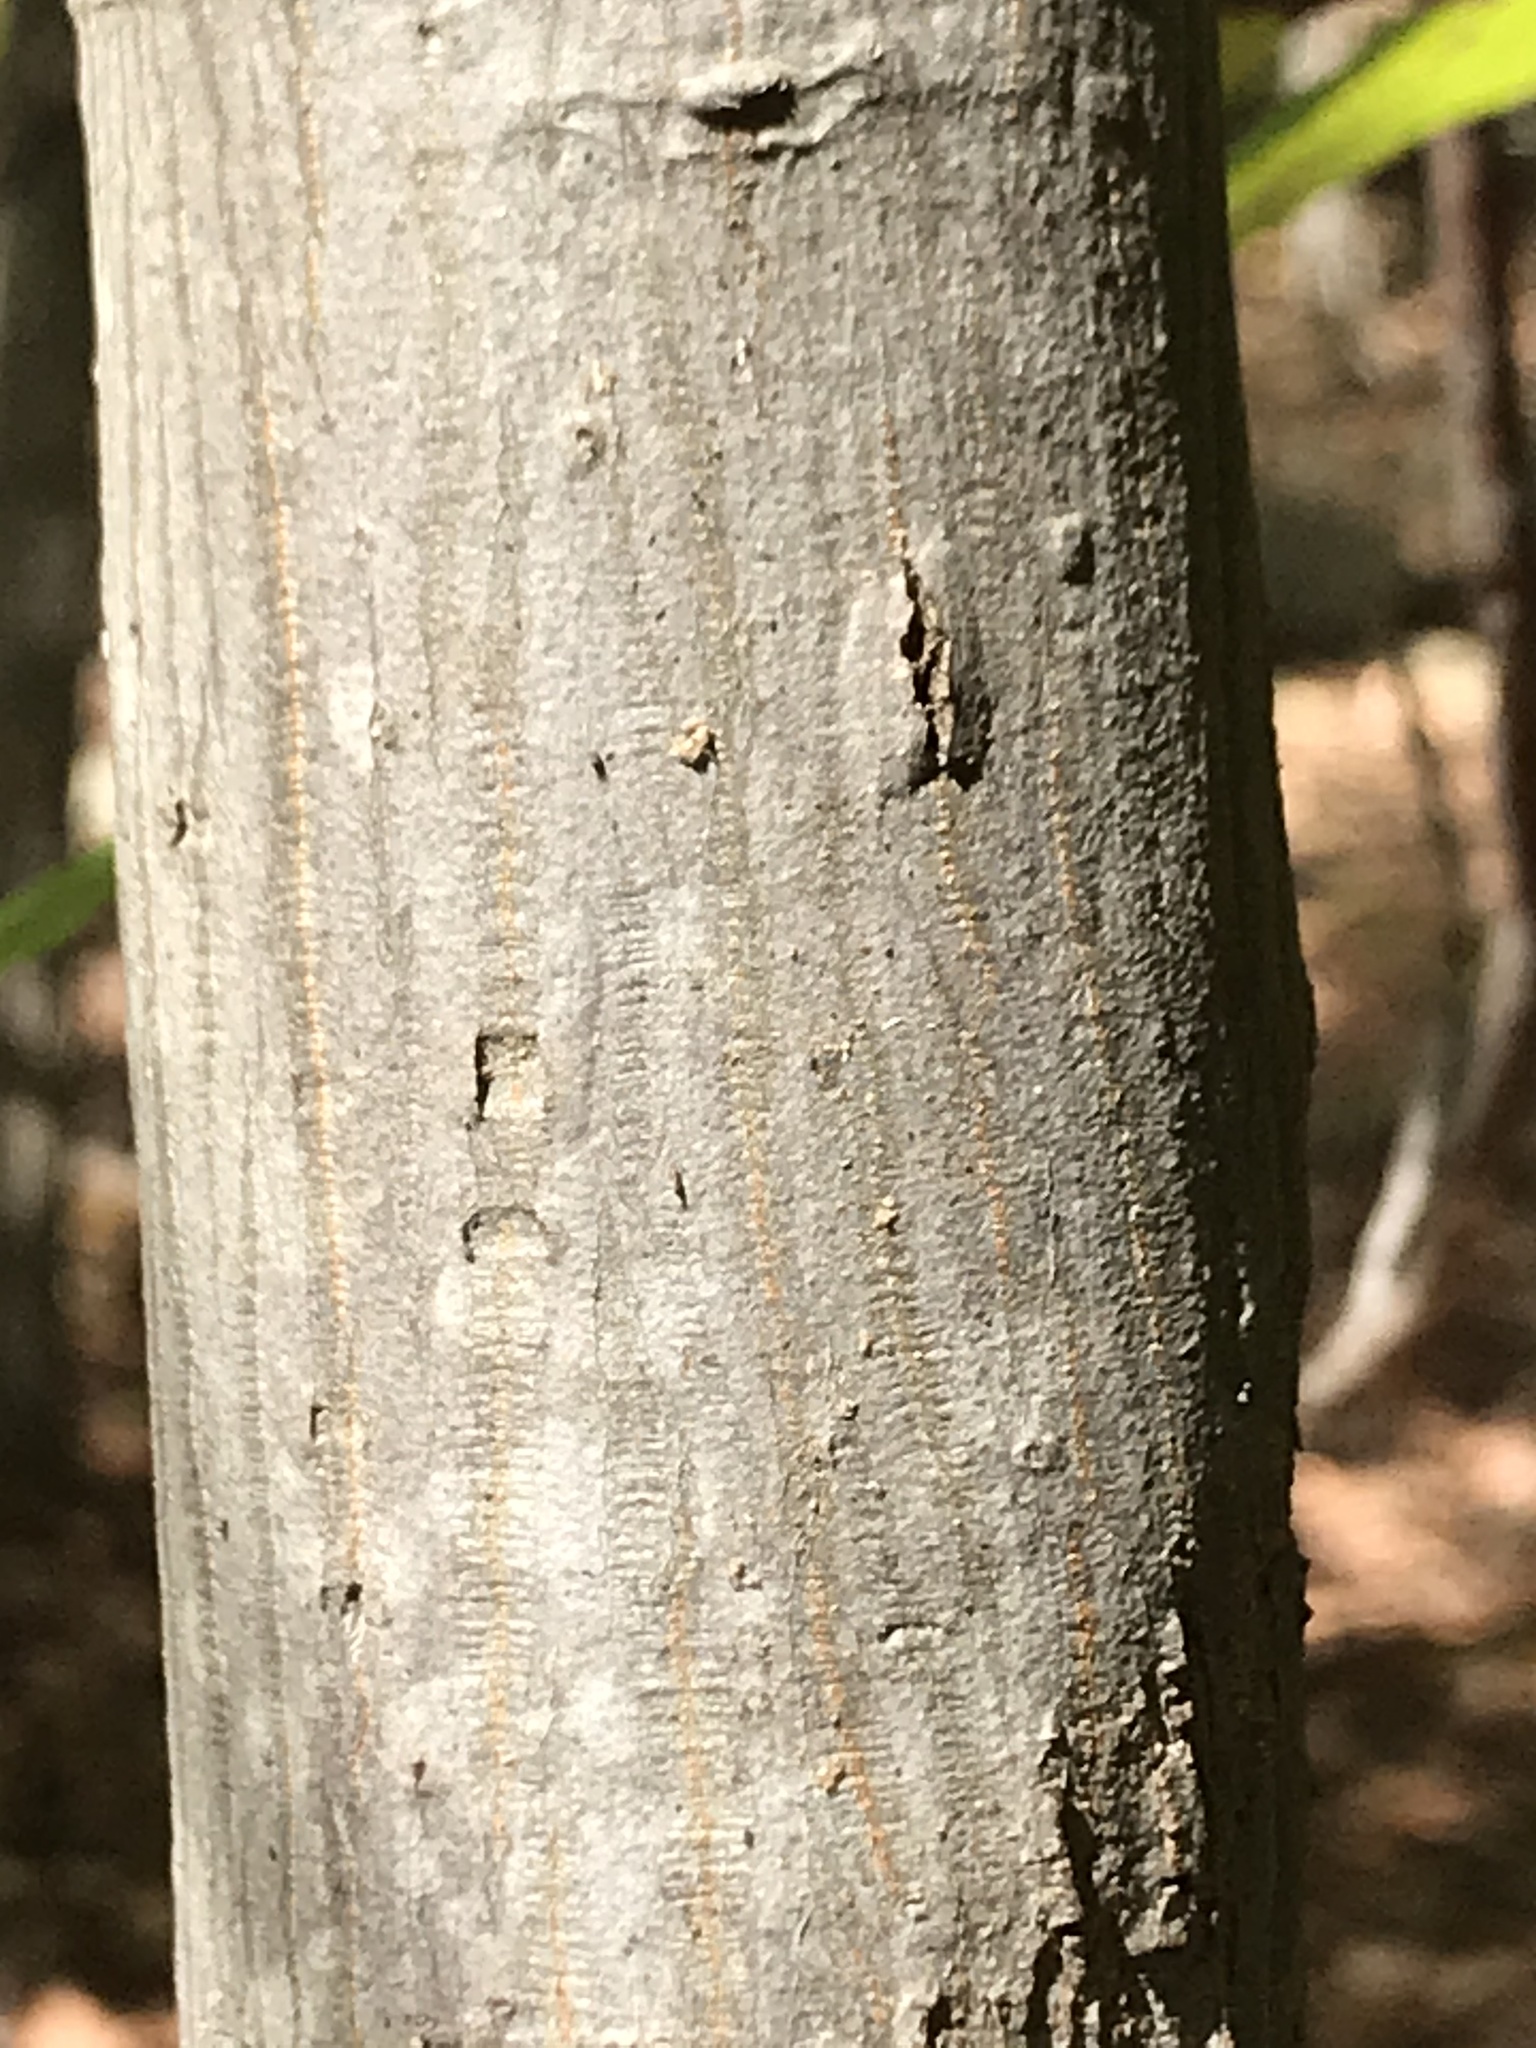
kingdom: Plantae
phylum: Tracheophyta
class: Magnoliopsida
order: Fagales
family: Juglandaceae
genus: Carya
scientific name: Carya glabra
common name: Pignut hickory
